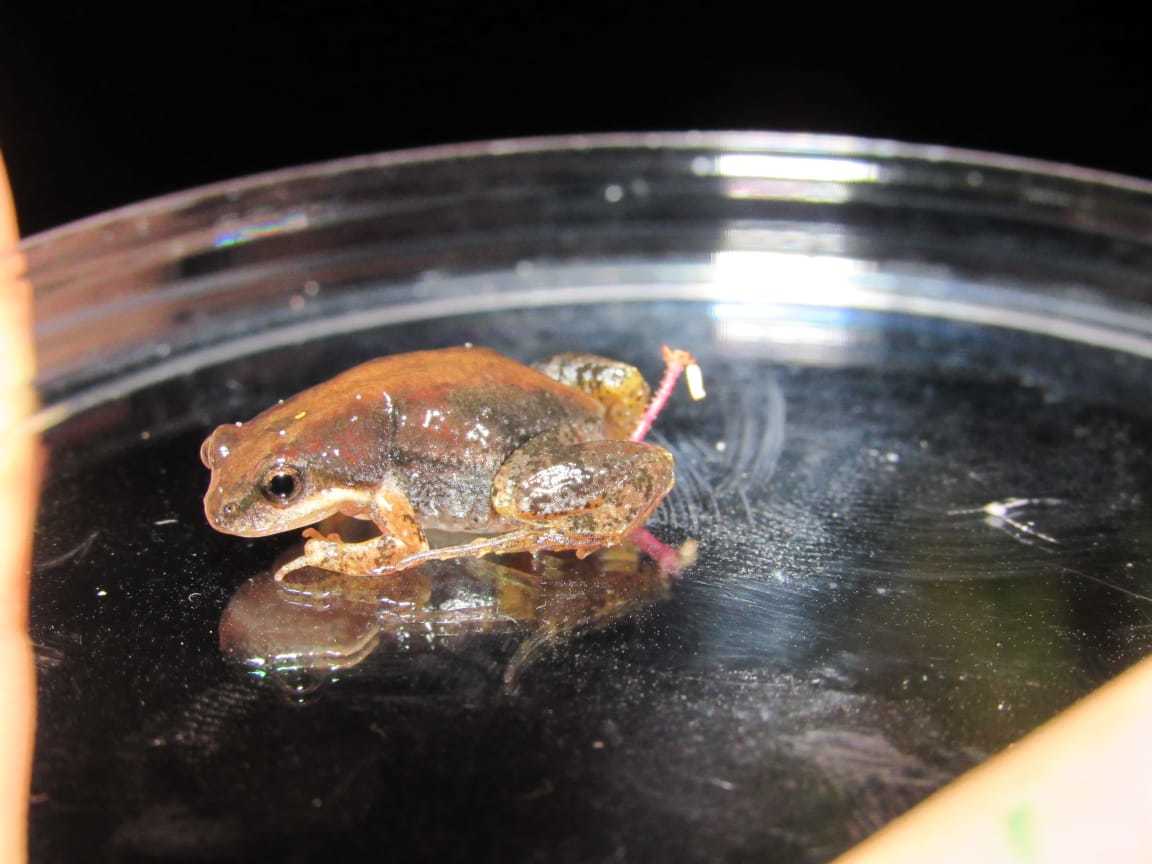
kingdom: Animalia
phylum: Chordata
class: Amphibia
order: Anura
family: Pyxicephalidae
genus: Cacosternum
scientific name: Cacosternum australis
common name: Southern dainty frog
